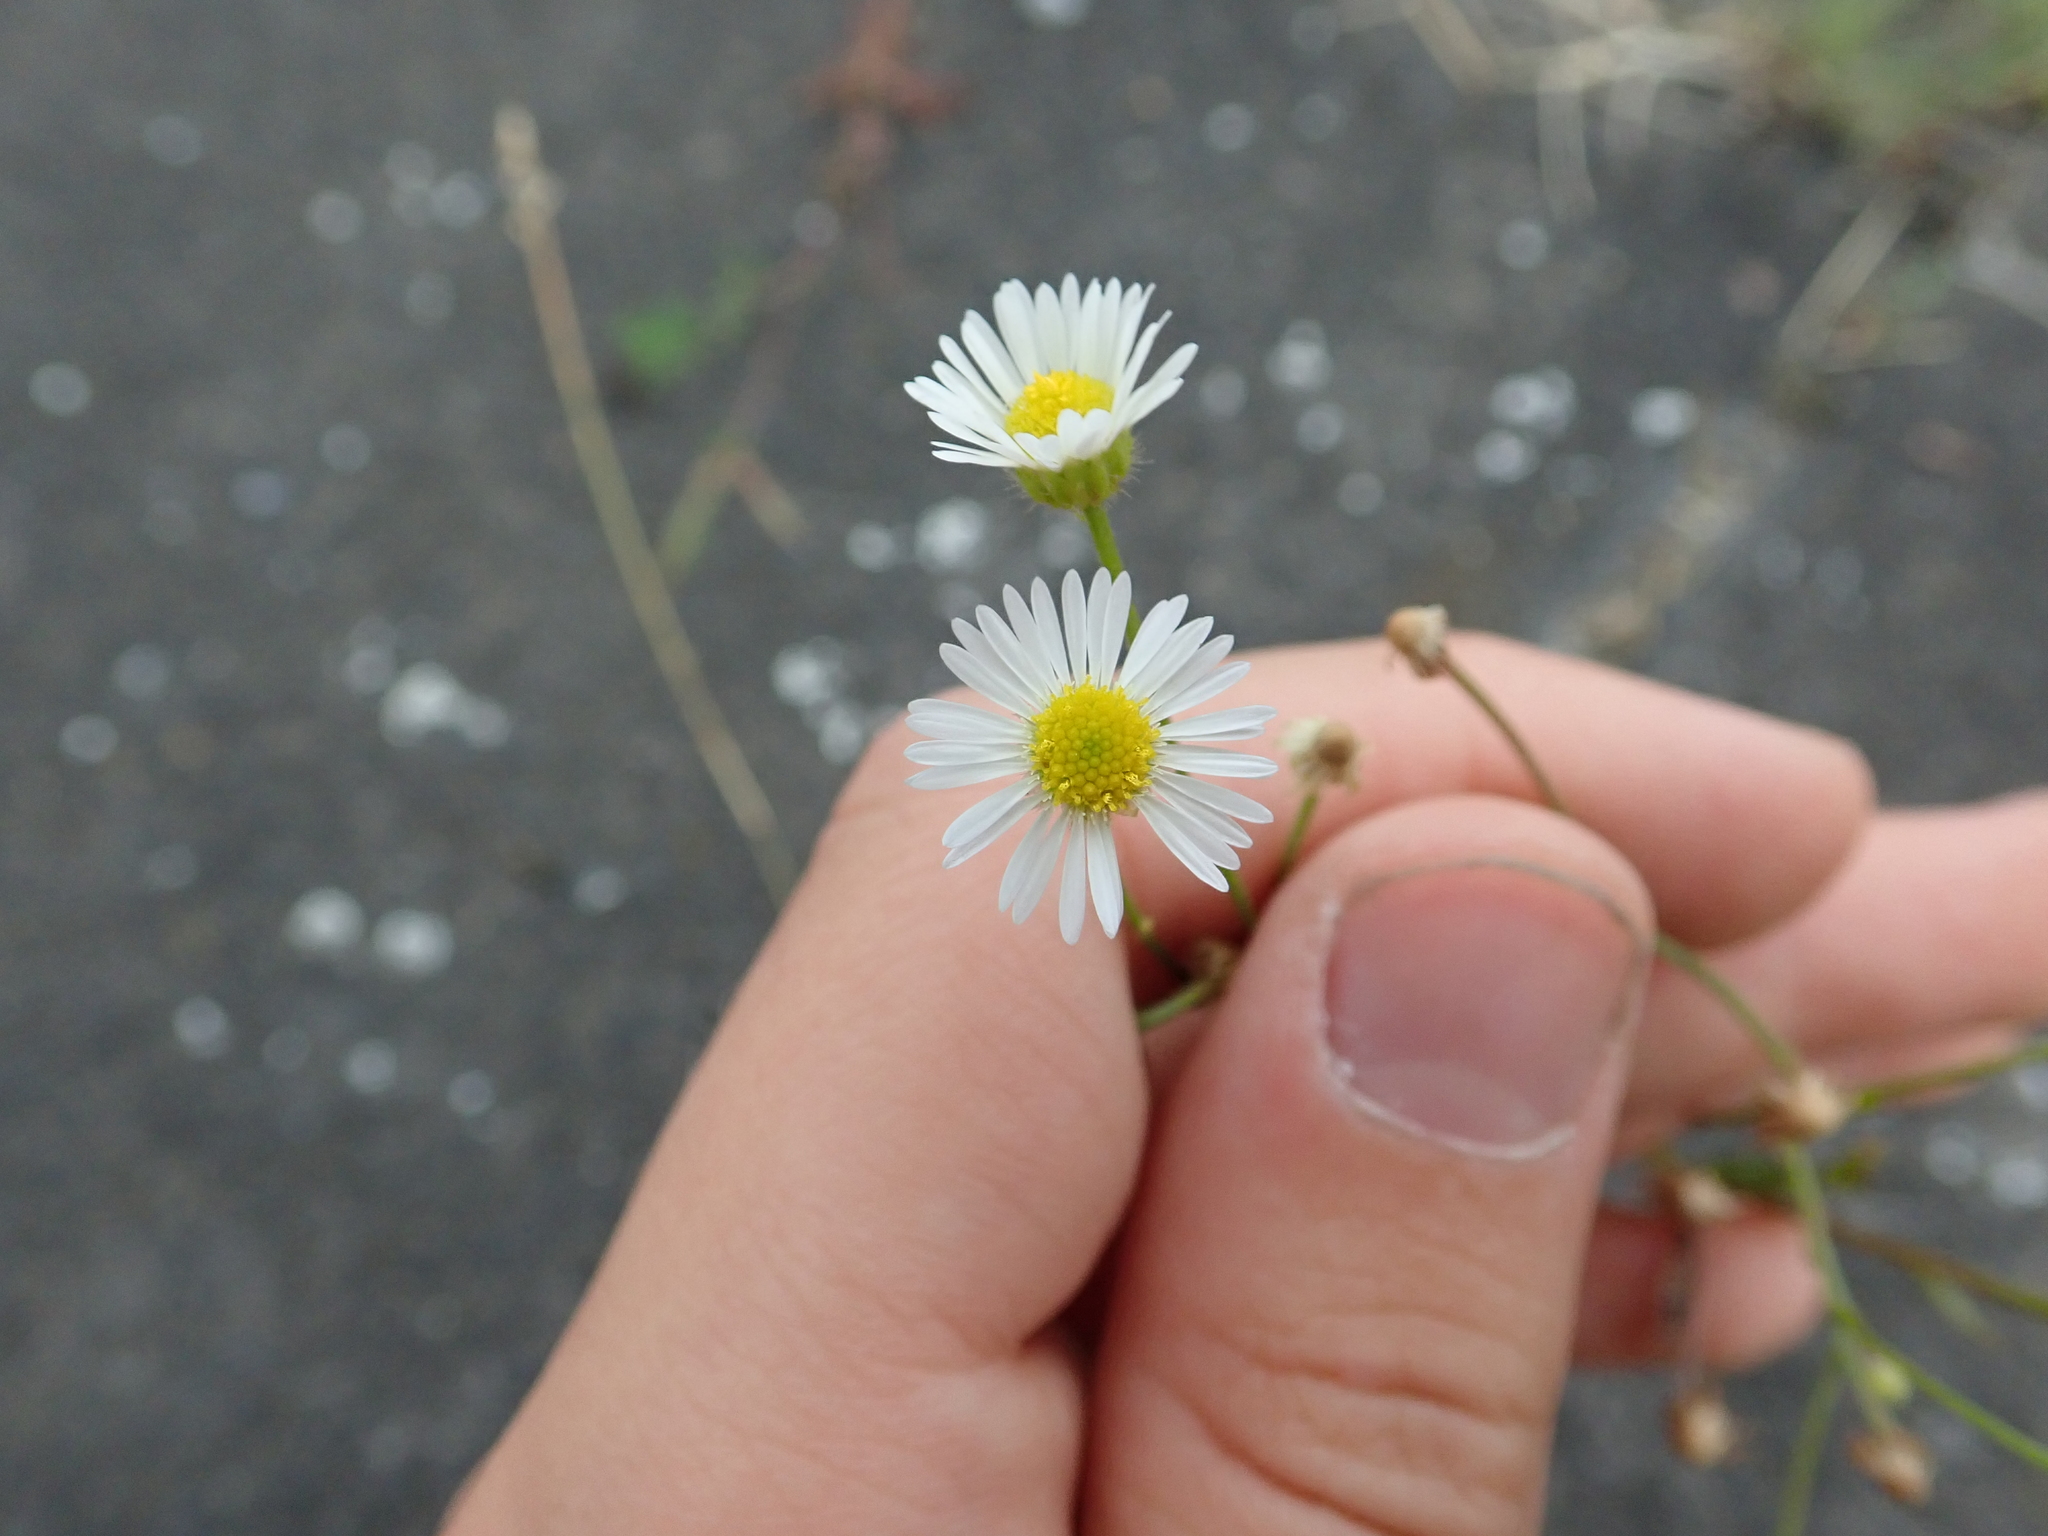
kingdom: Plantae
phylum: Tracheophyta
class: Magnoliopsida
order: Asterales
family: Asteraceae
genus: Erigeron
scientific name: Erigeron annuus
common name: Tall fleabane
